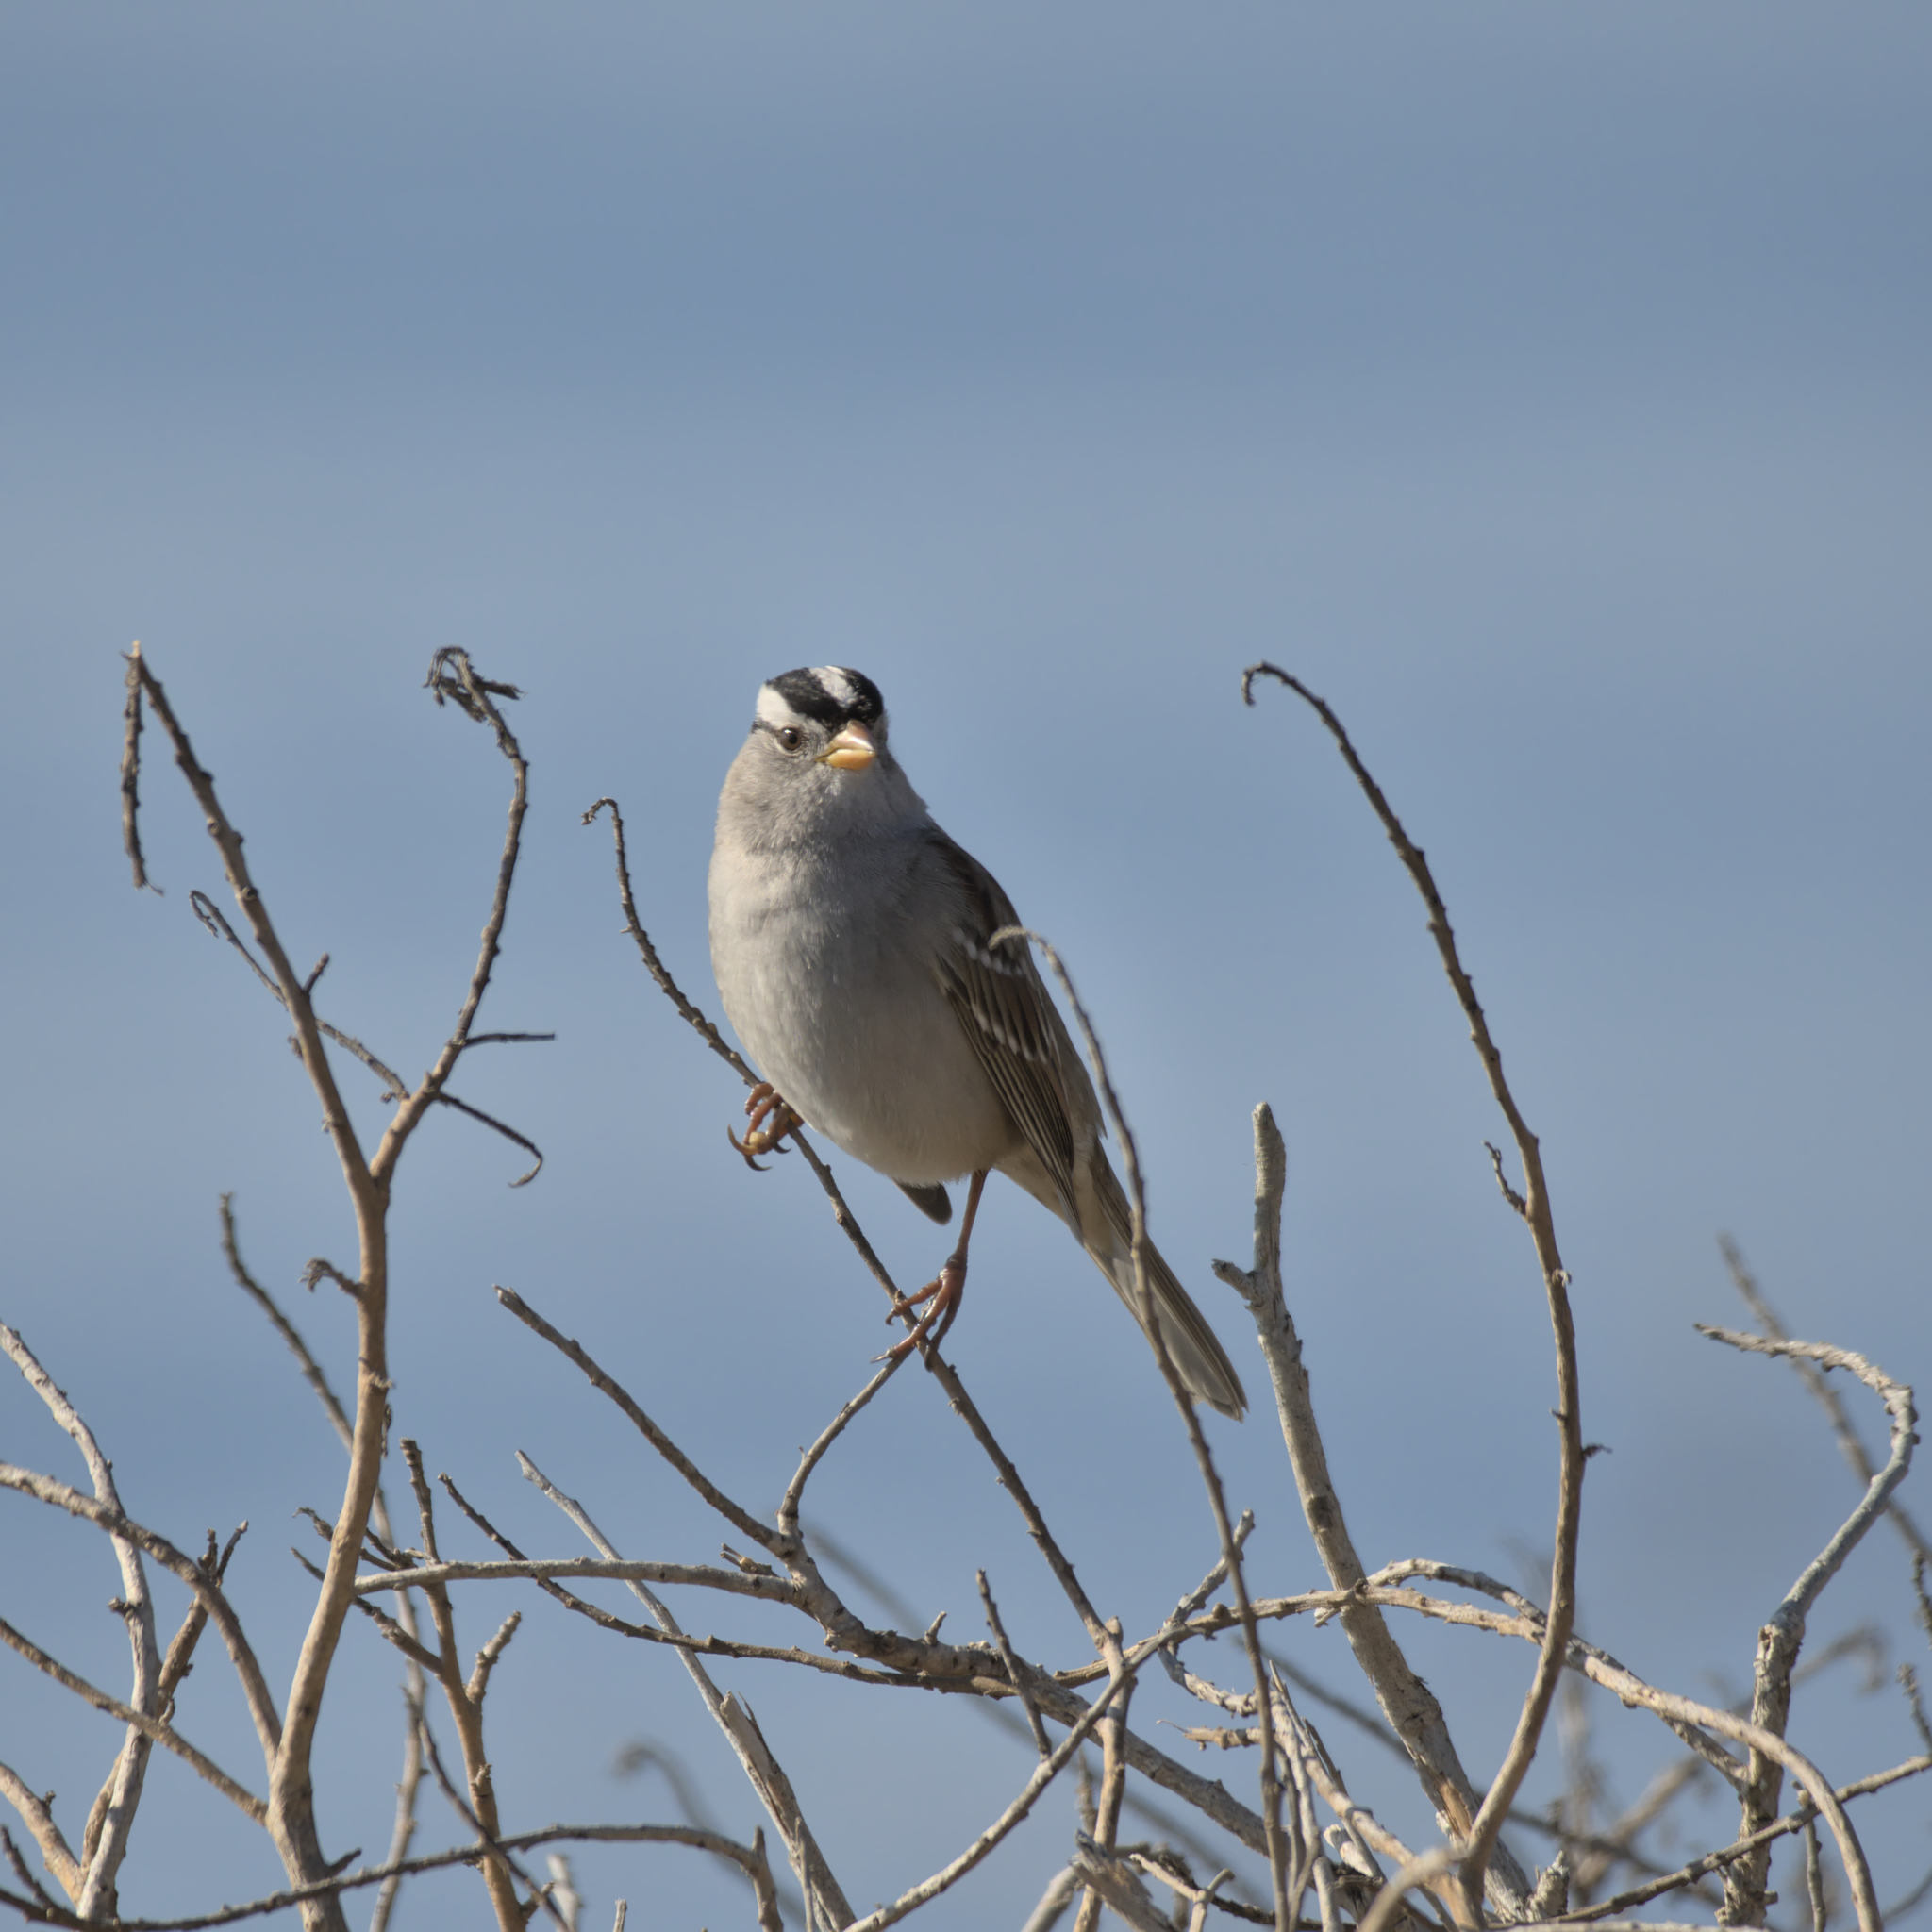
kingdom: Animalia
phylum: Chordata
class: Aves
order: Passeriformes
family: Passerellidae
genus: Zonotrichia
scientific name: Zonotrichia leucophrys
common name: White-crowned sparrow
